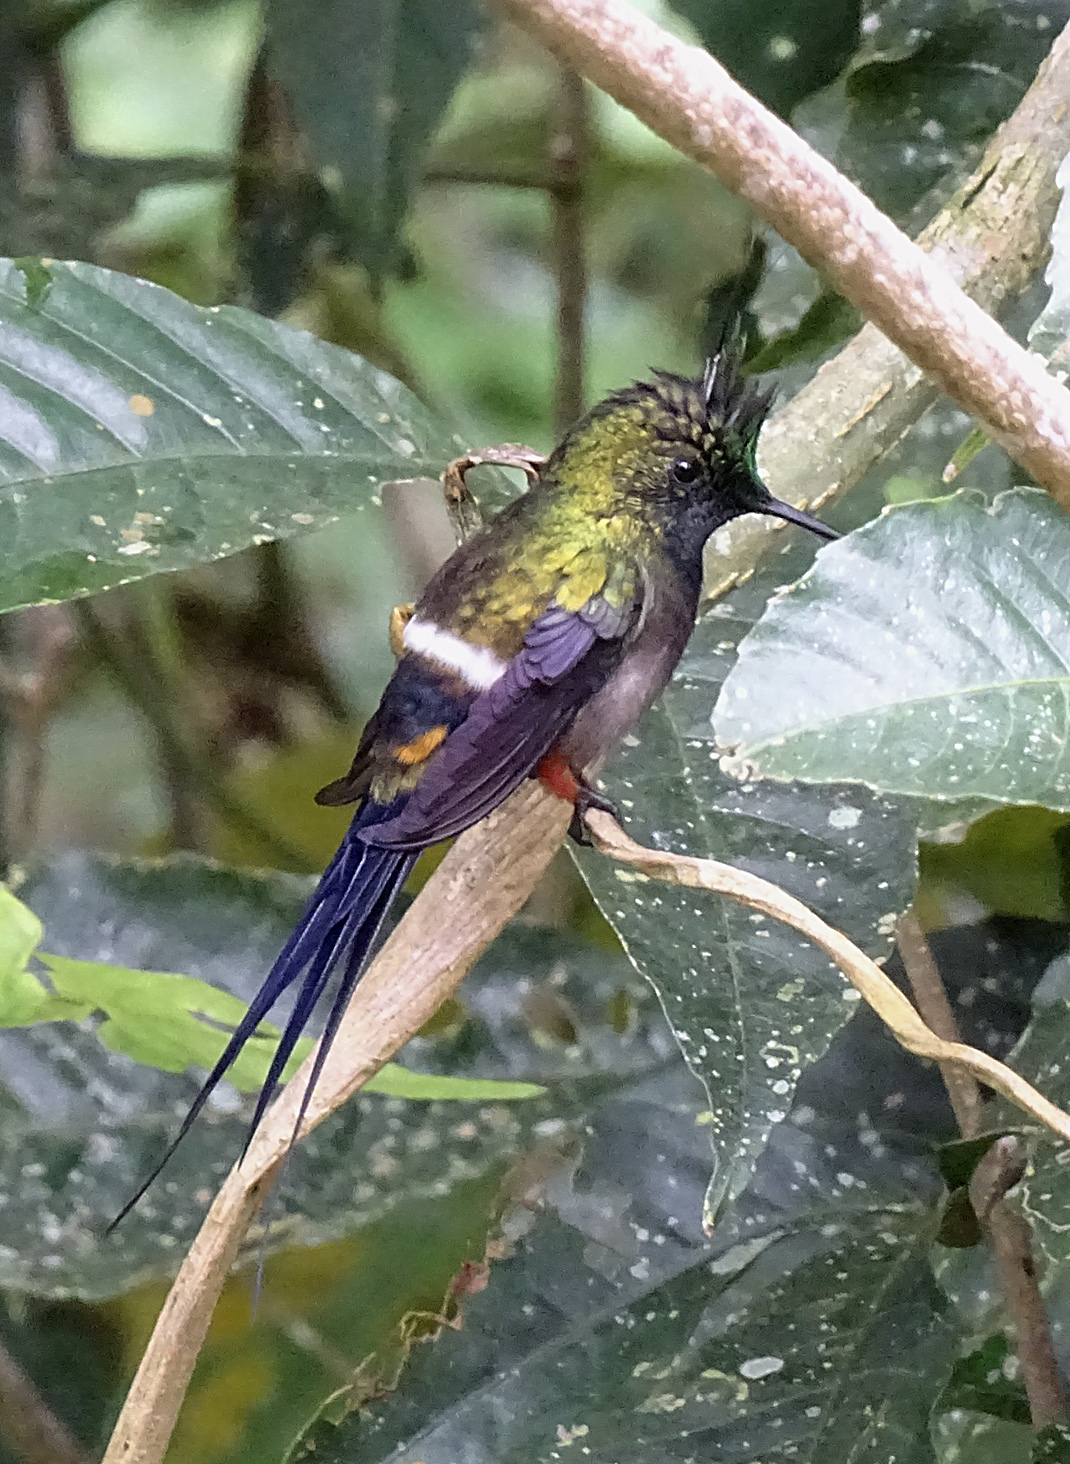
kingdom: Animalia
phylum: Chordata
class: Aves
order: Apodiformes
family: Trochilidae
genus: Discosura
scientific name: Discosura popelairii
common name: Wire-crested thorntail
